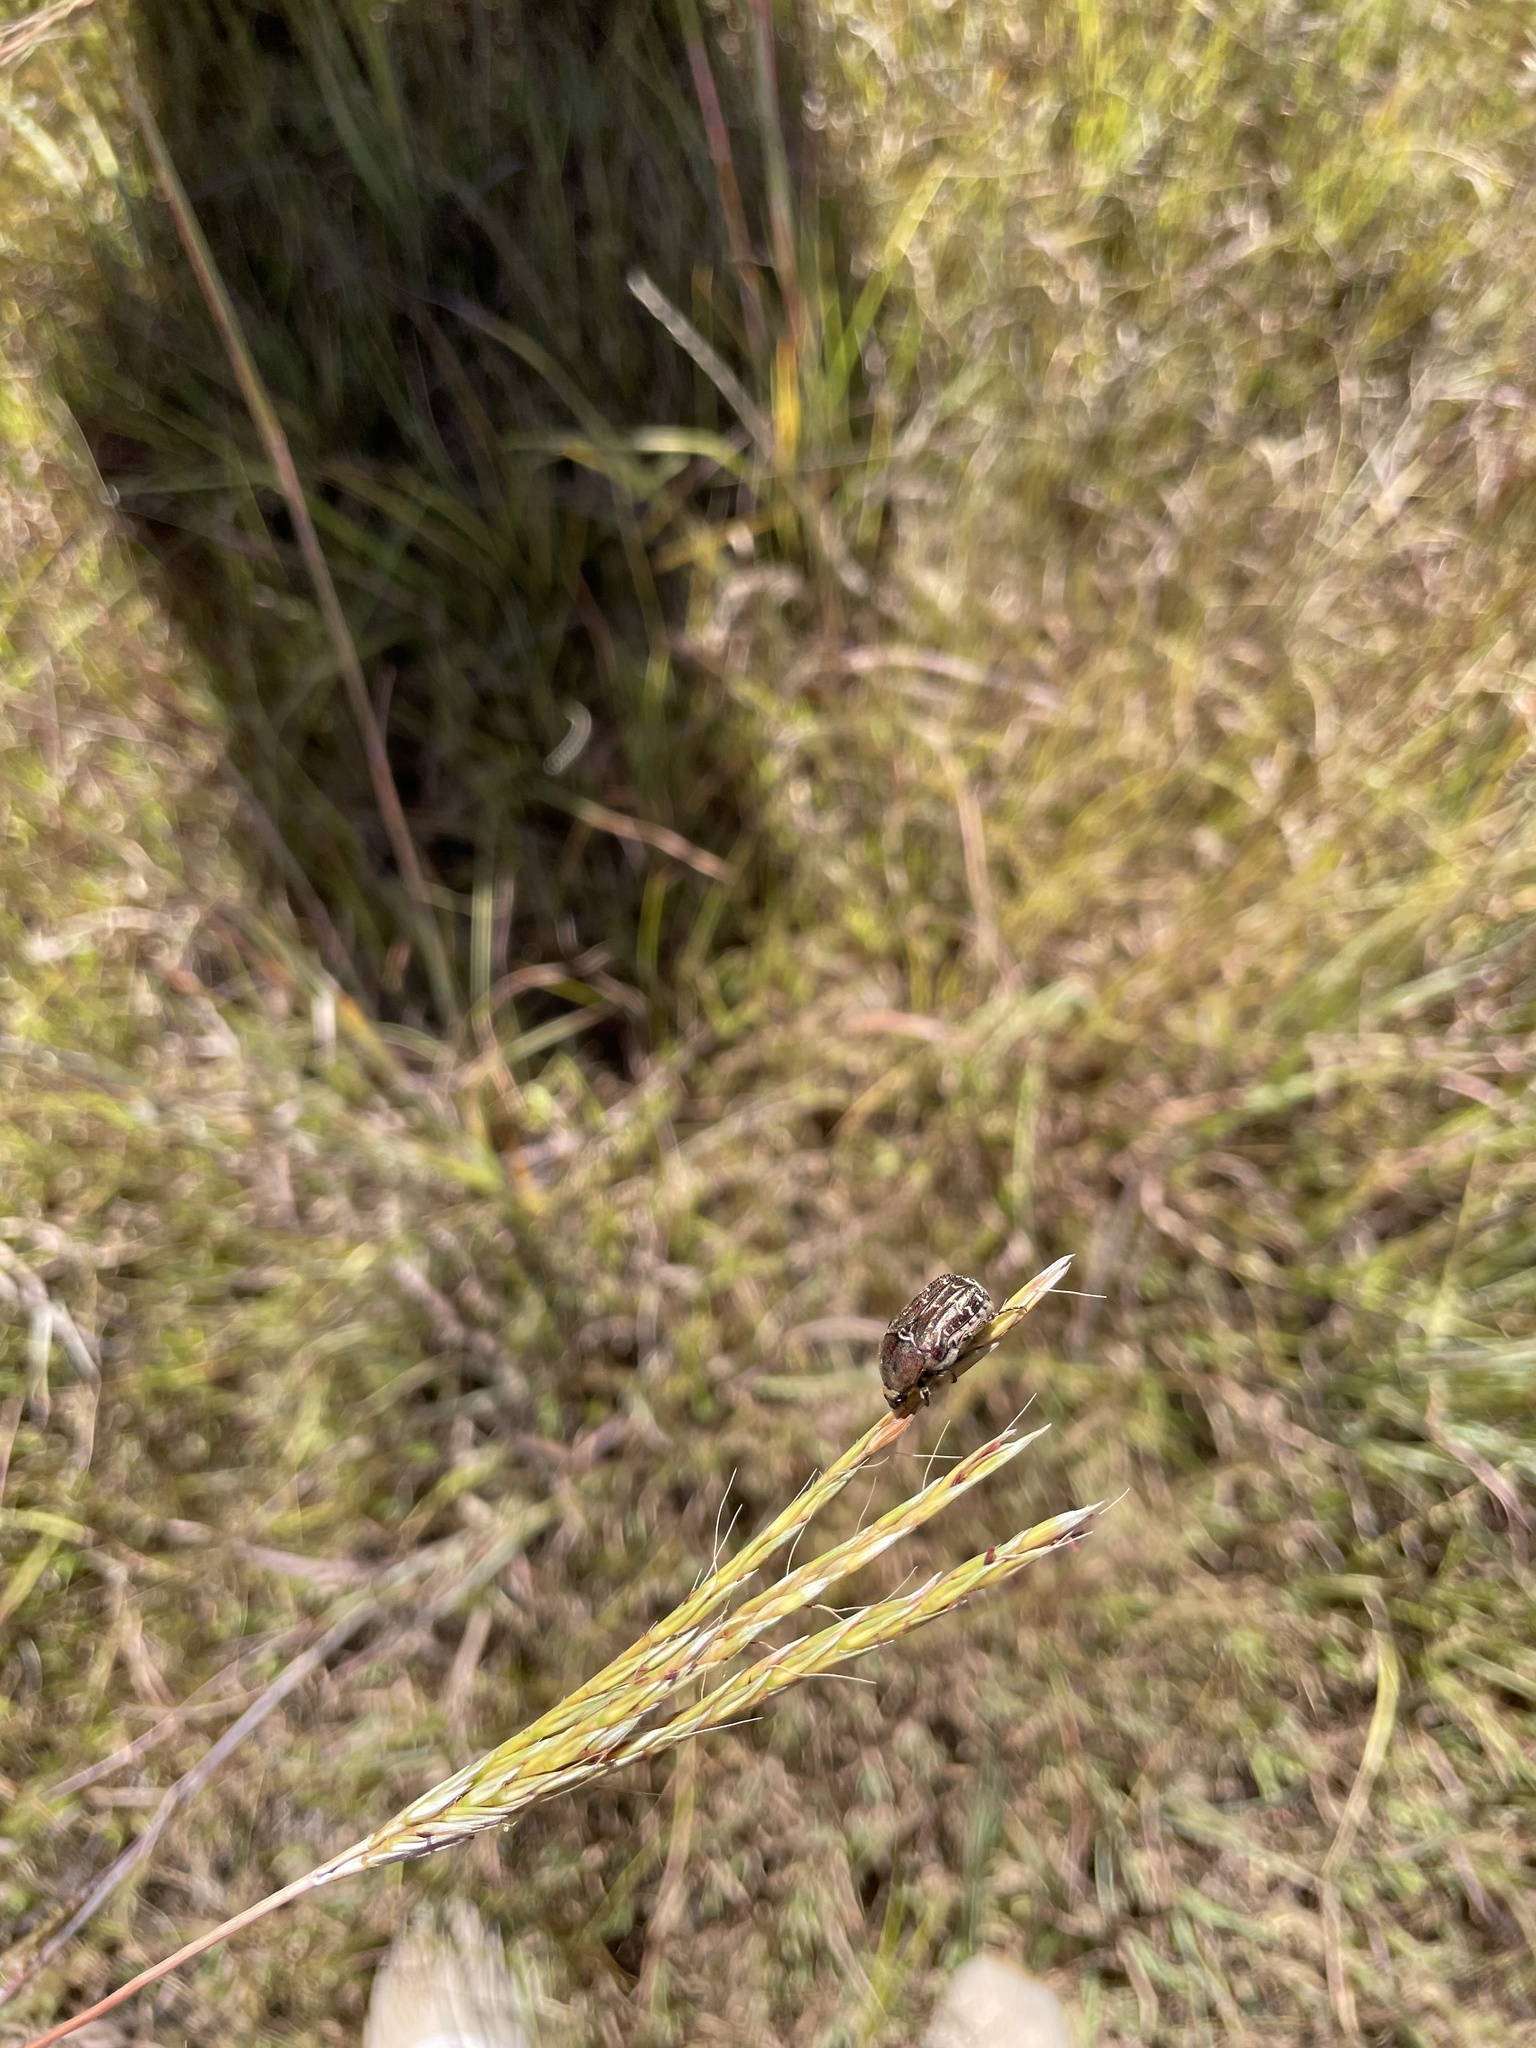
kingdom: Animalia
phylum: Arthropoda
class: Insecta
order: Coleoptera
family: Scarabaeidae
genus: Euphoria
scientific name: Euphoria sepulcralis
